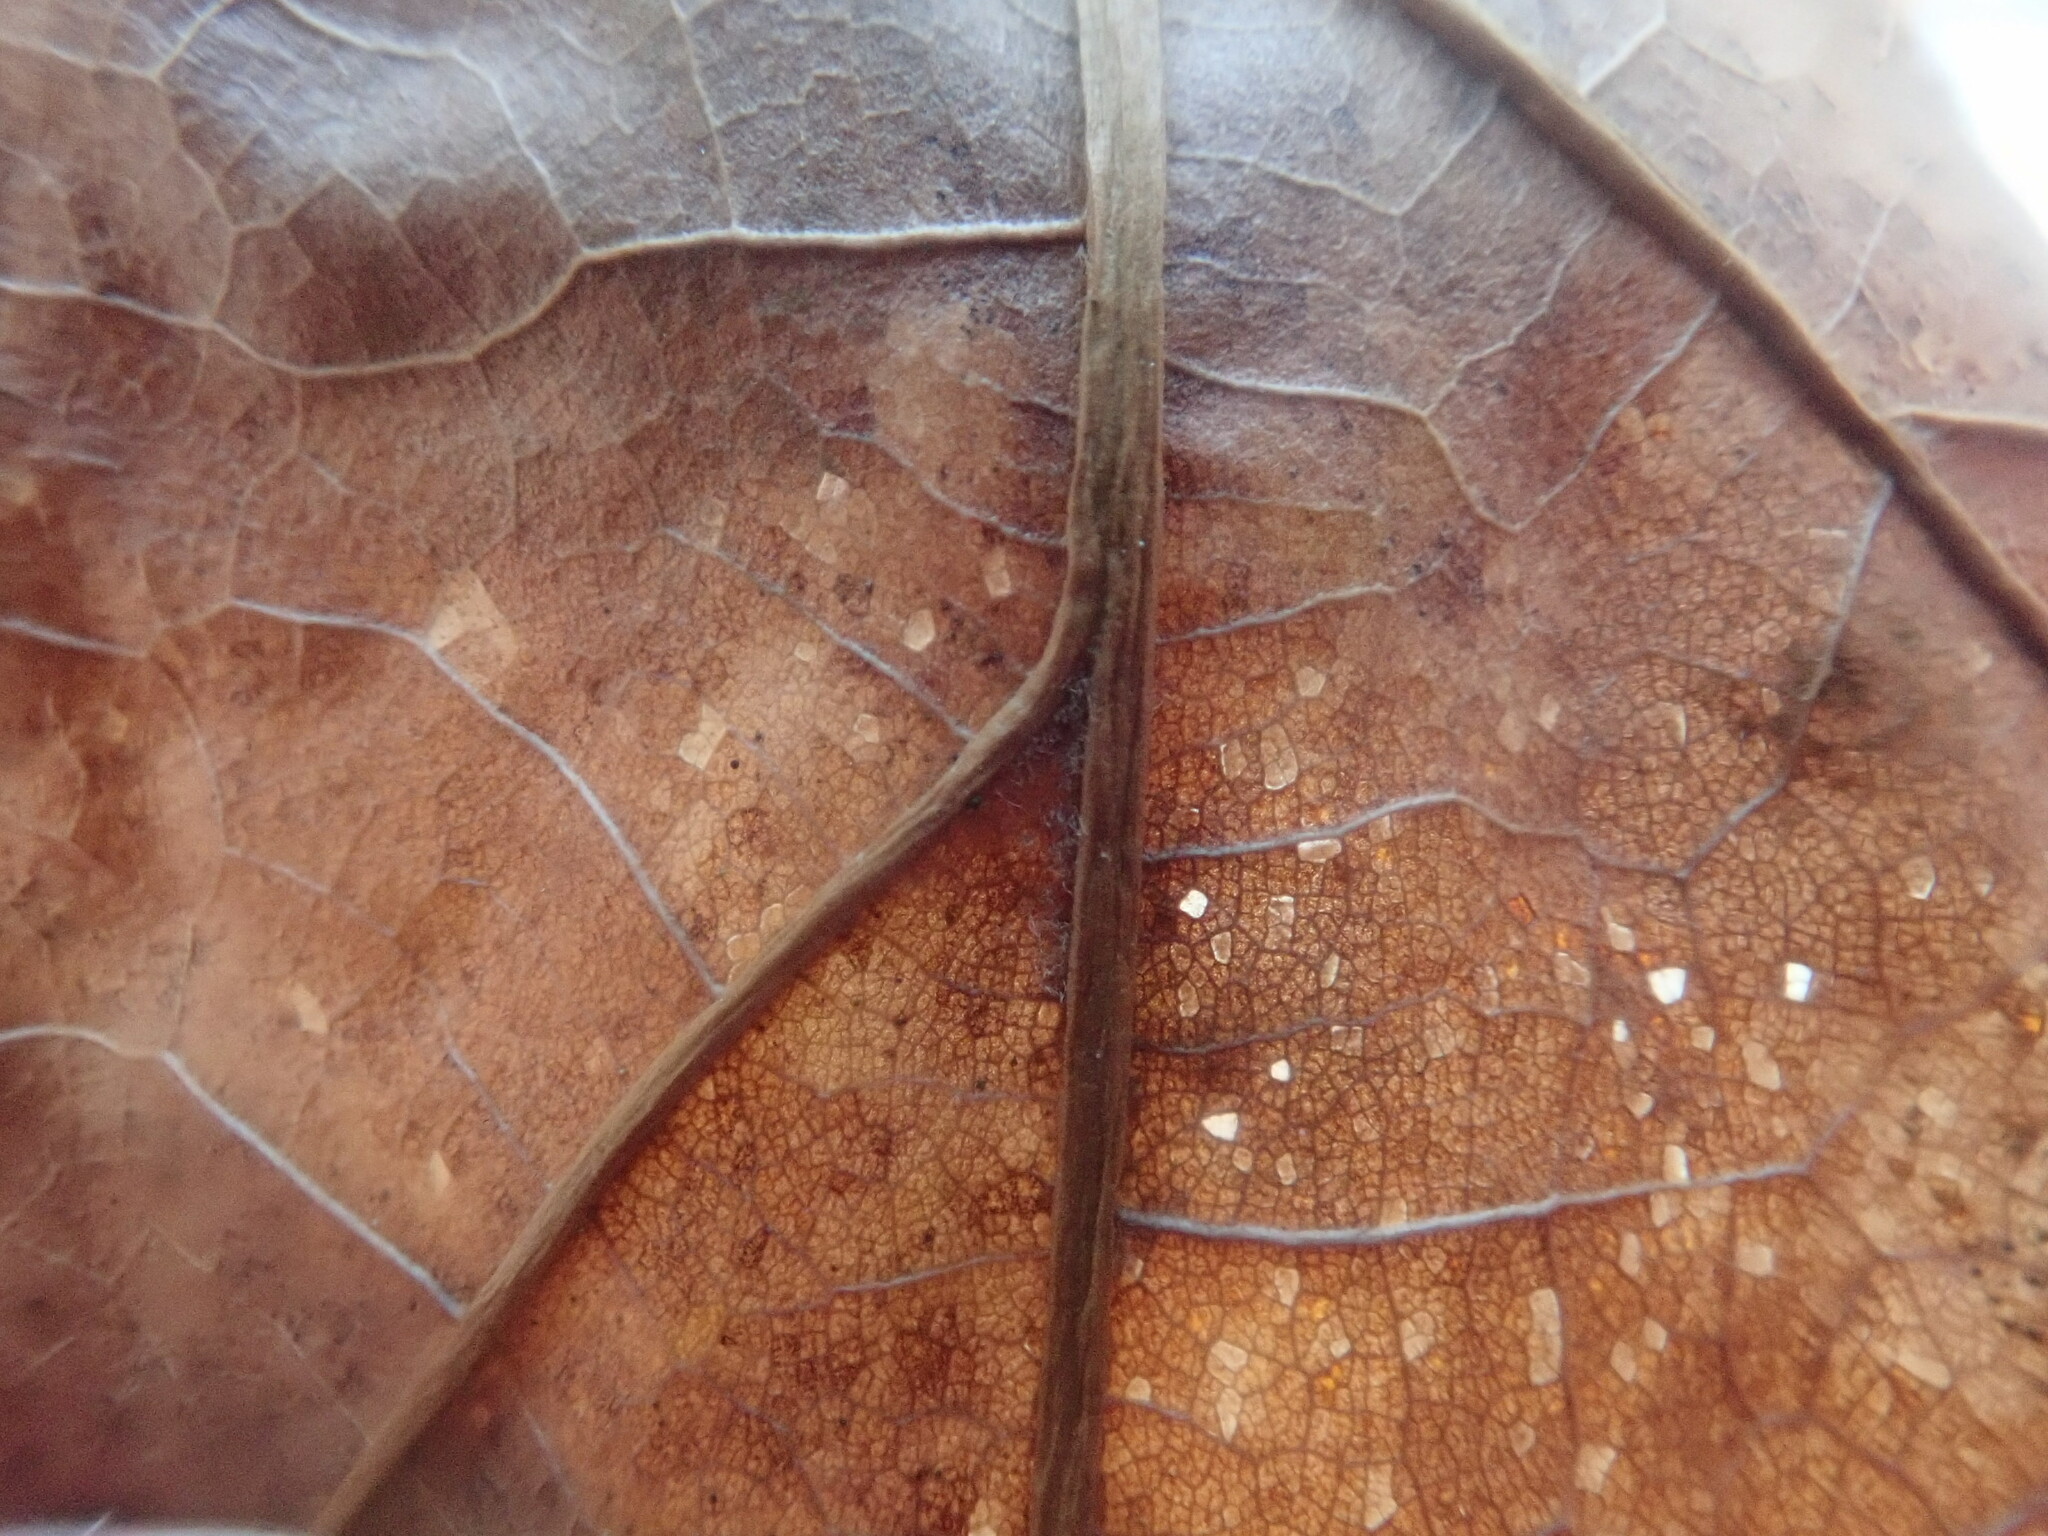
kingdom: Plantae
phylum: Tracheophyta
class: Magnoliopsida
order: Fagales
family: Fagaceae
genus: Quercus
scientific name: Quercus velutina
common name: Black oak
